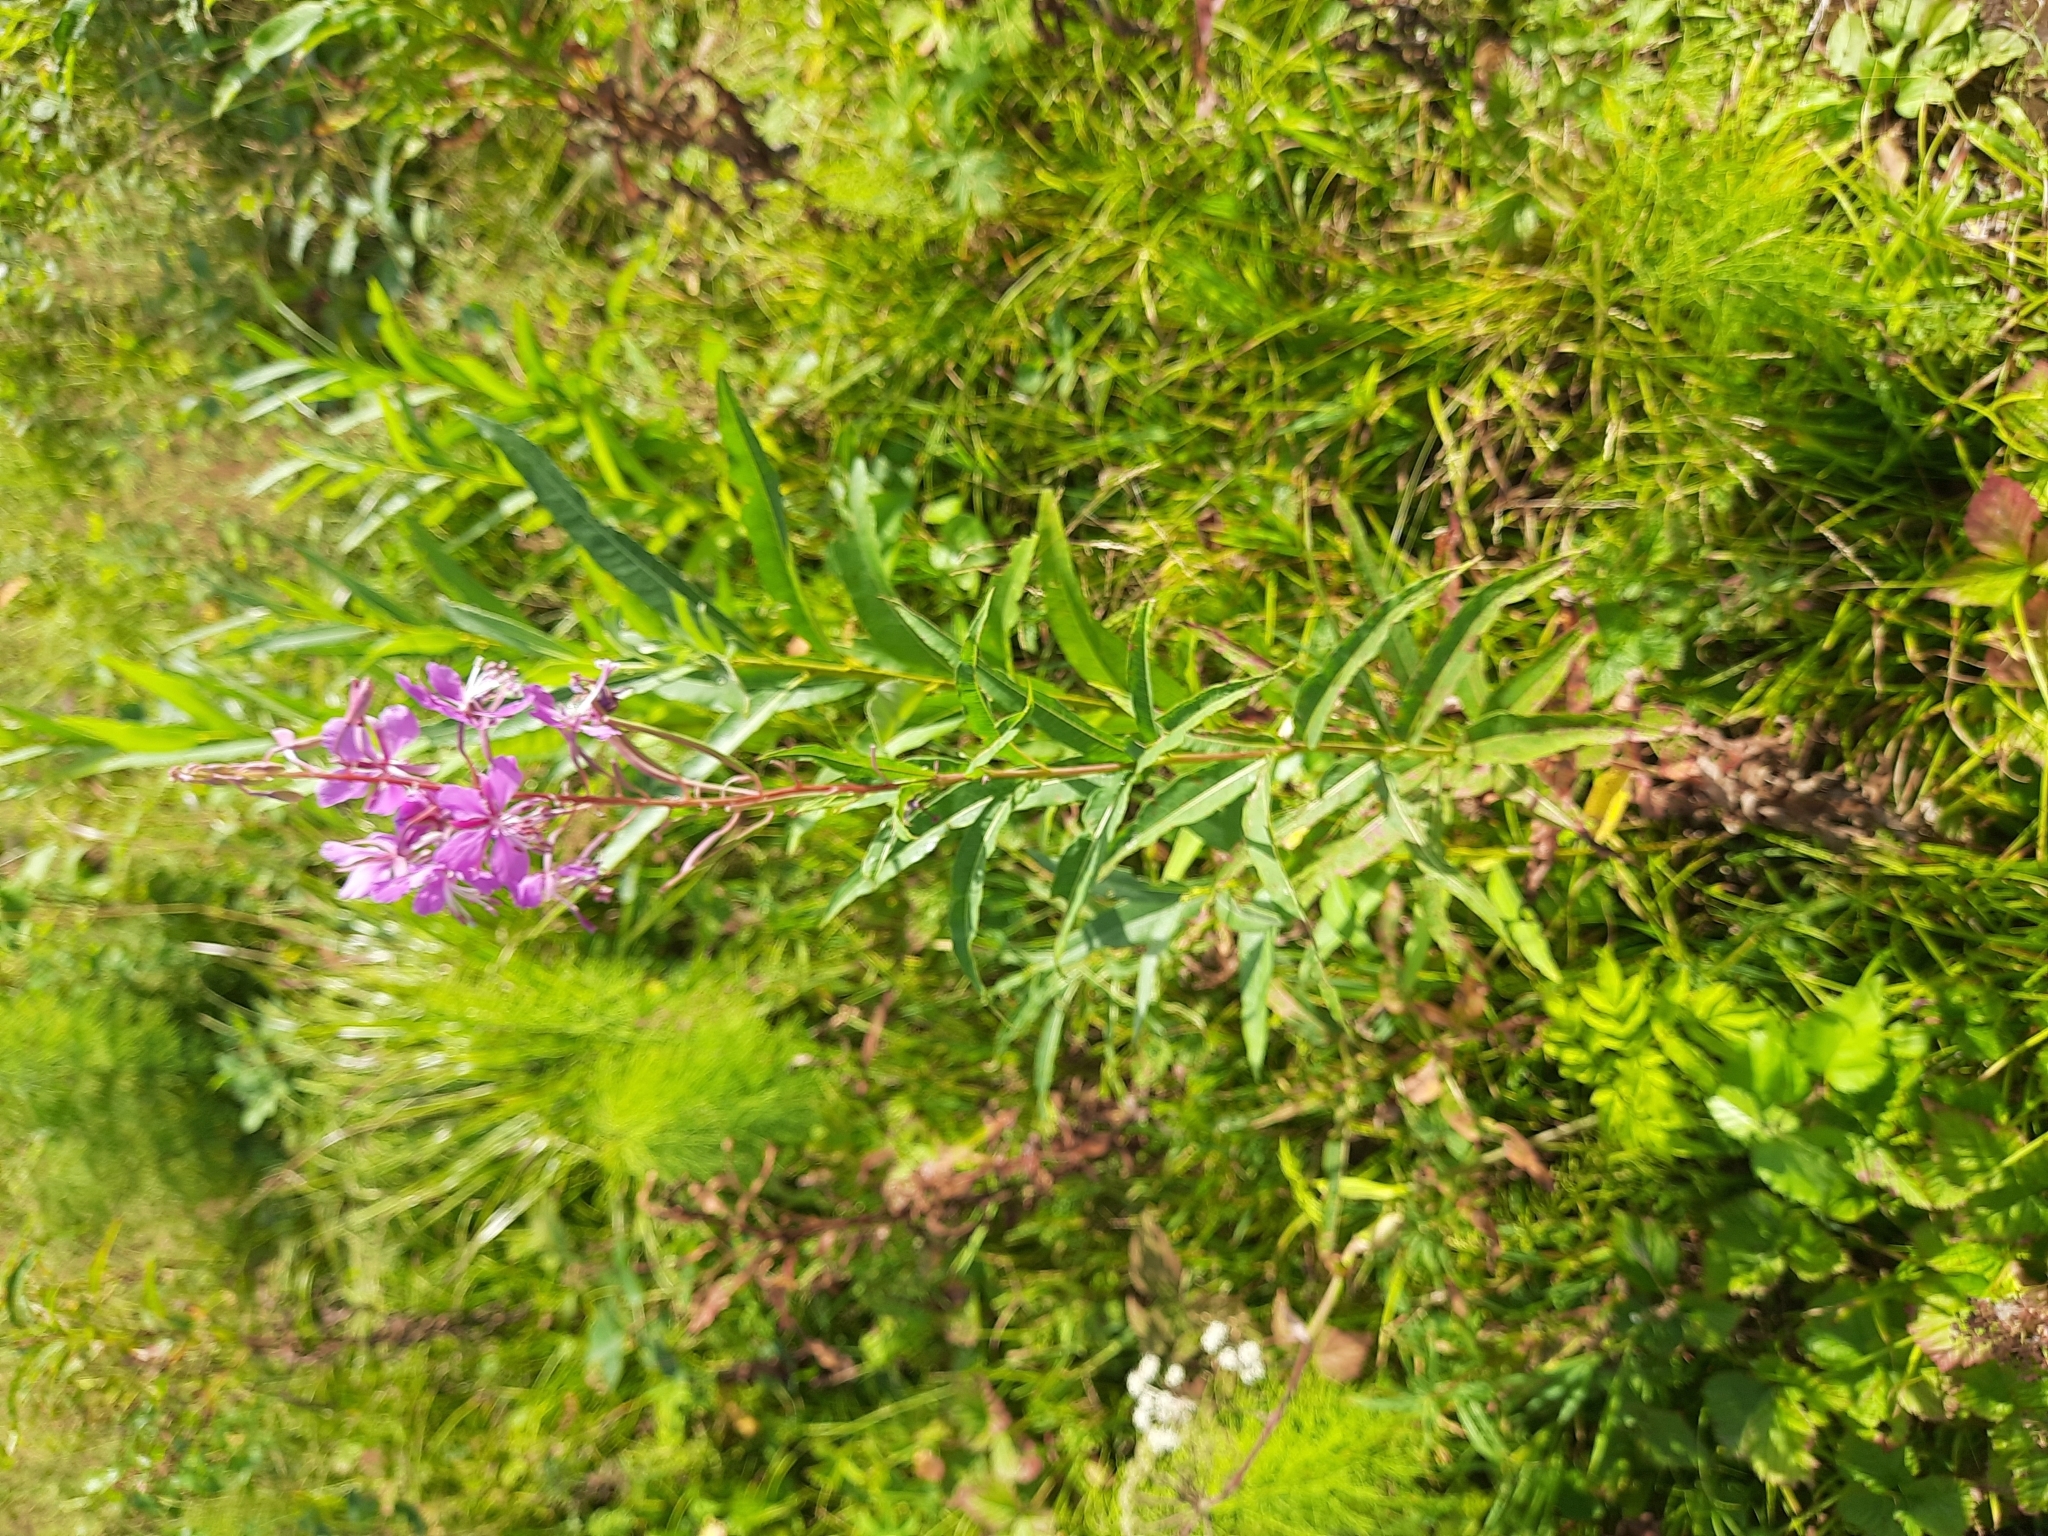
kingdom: Plantae
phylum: Tracheophyta
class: Magnoliopsida
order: Myrtales
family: Onagraceae
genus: Chamaenerion
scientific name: Chamaenerion angustifolium
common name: Fireweed
